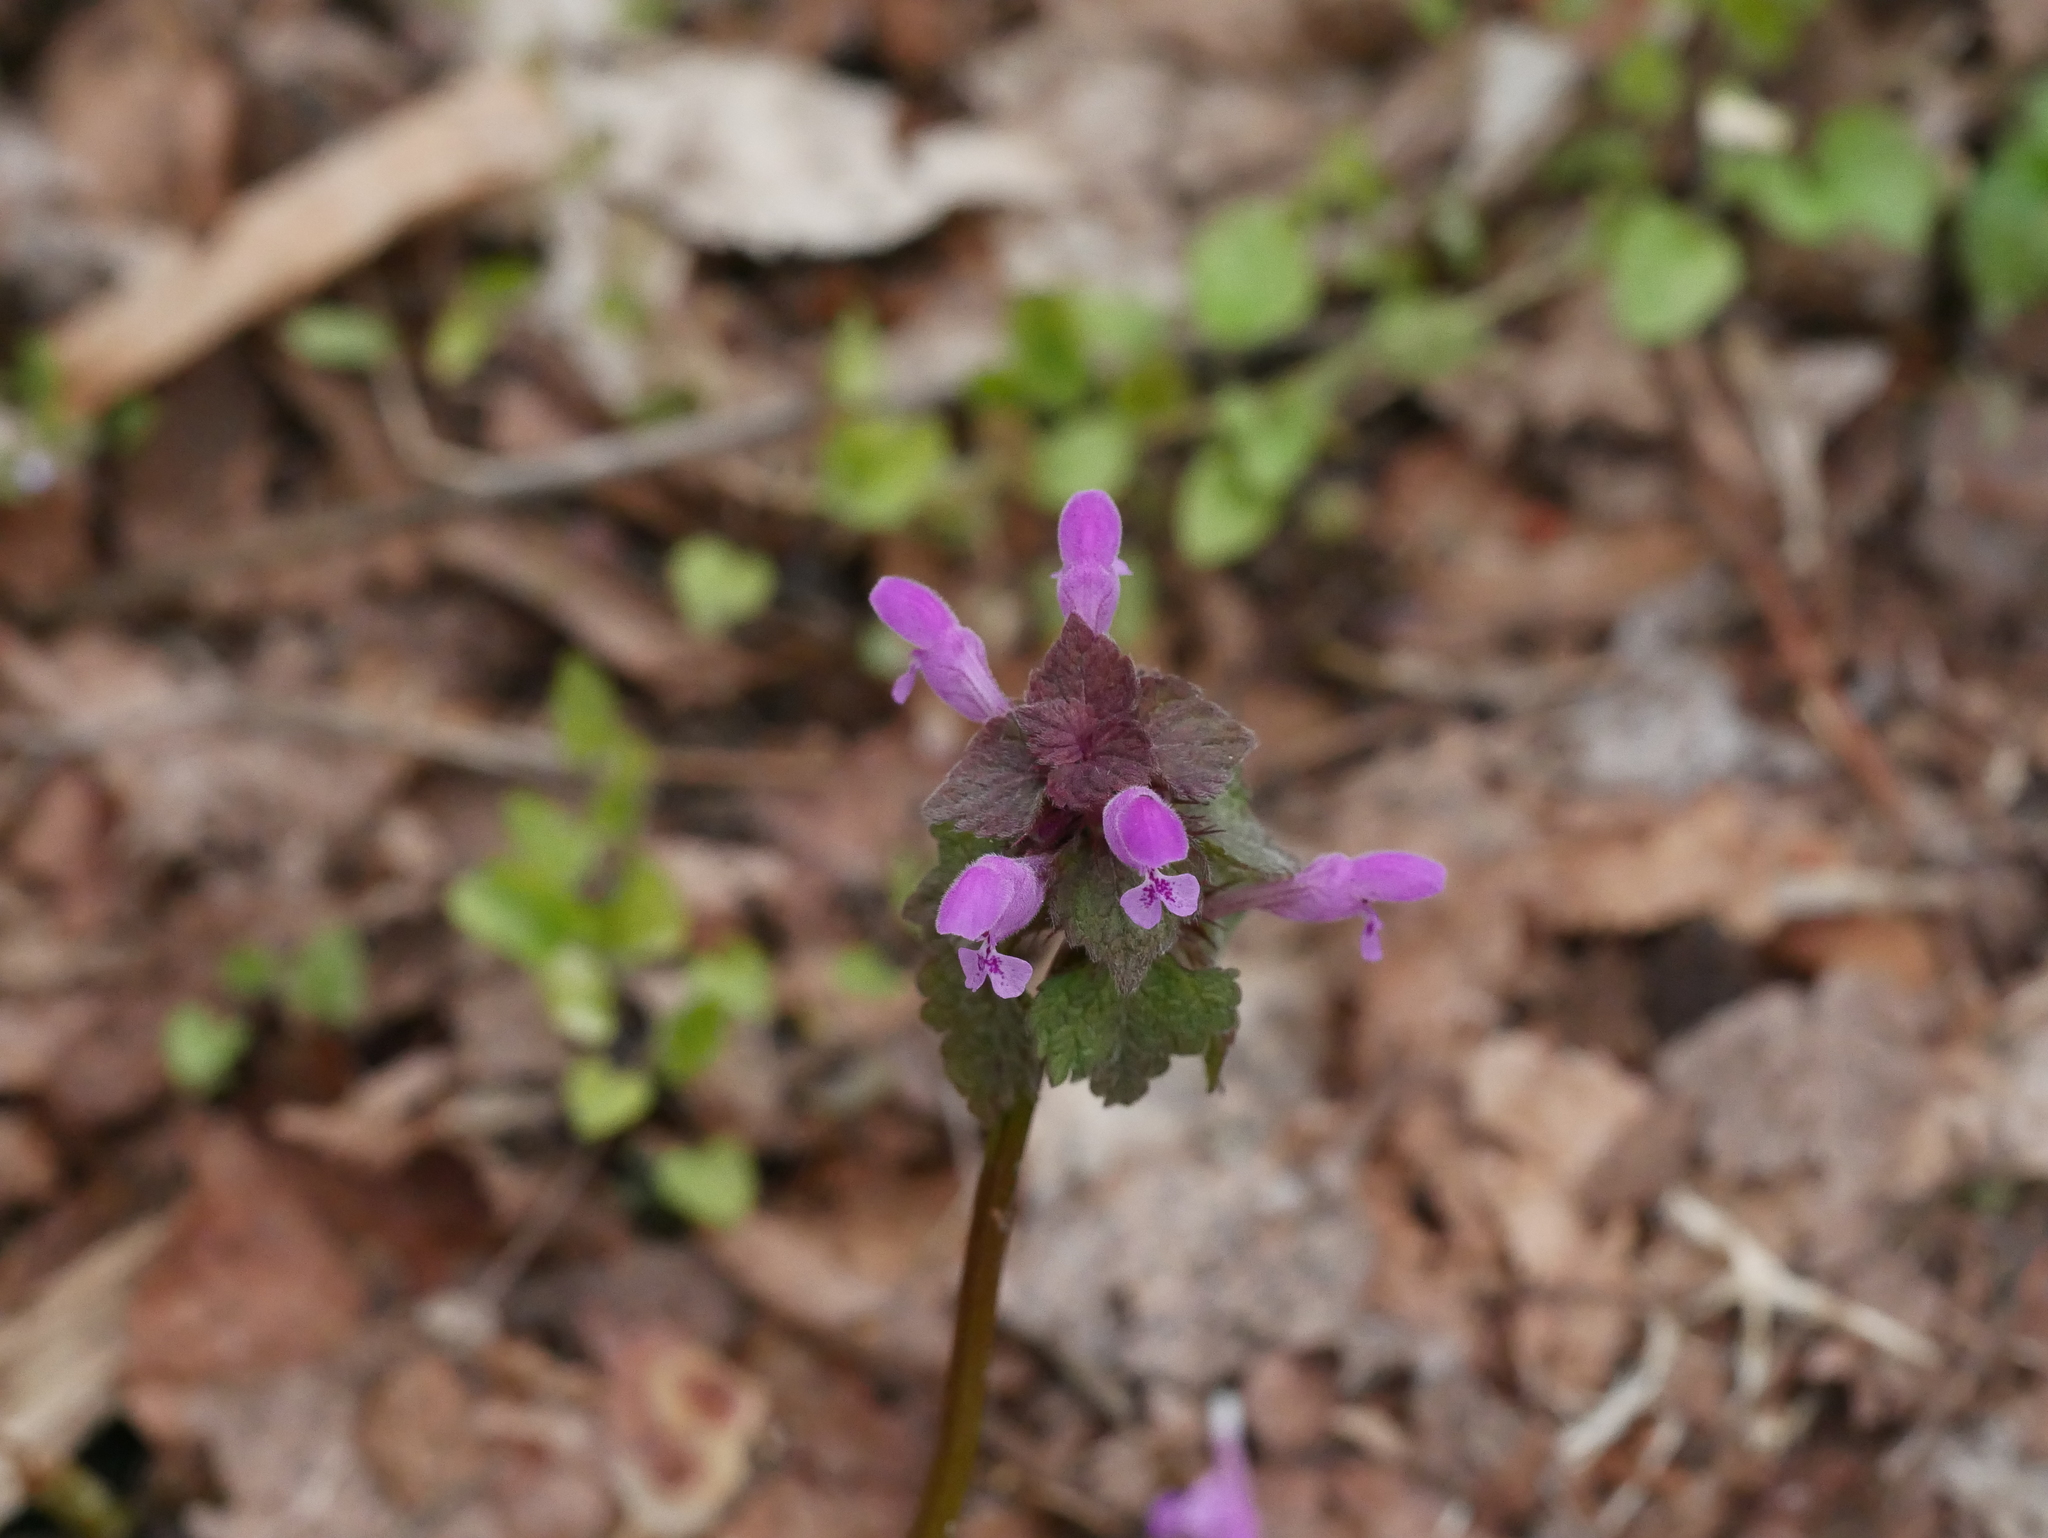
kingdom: Plantae
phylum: Tracheophyta
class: Magnoliopsida
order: Lamiales
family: Lamiaceae
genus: Lamium
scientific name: Lamium purpureum
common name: Red dead-nettle
